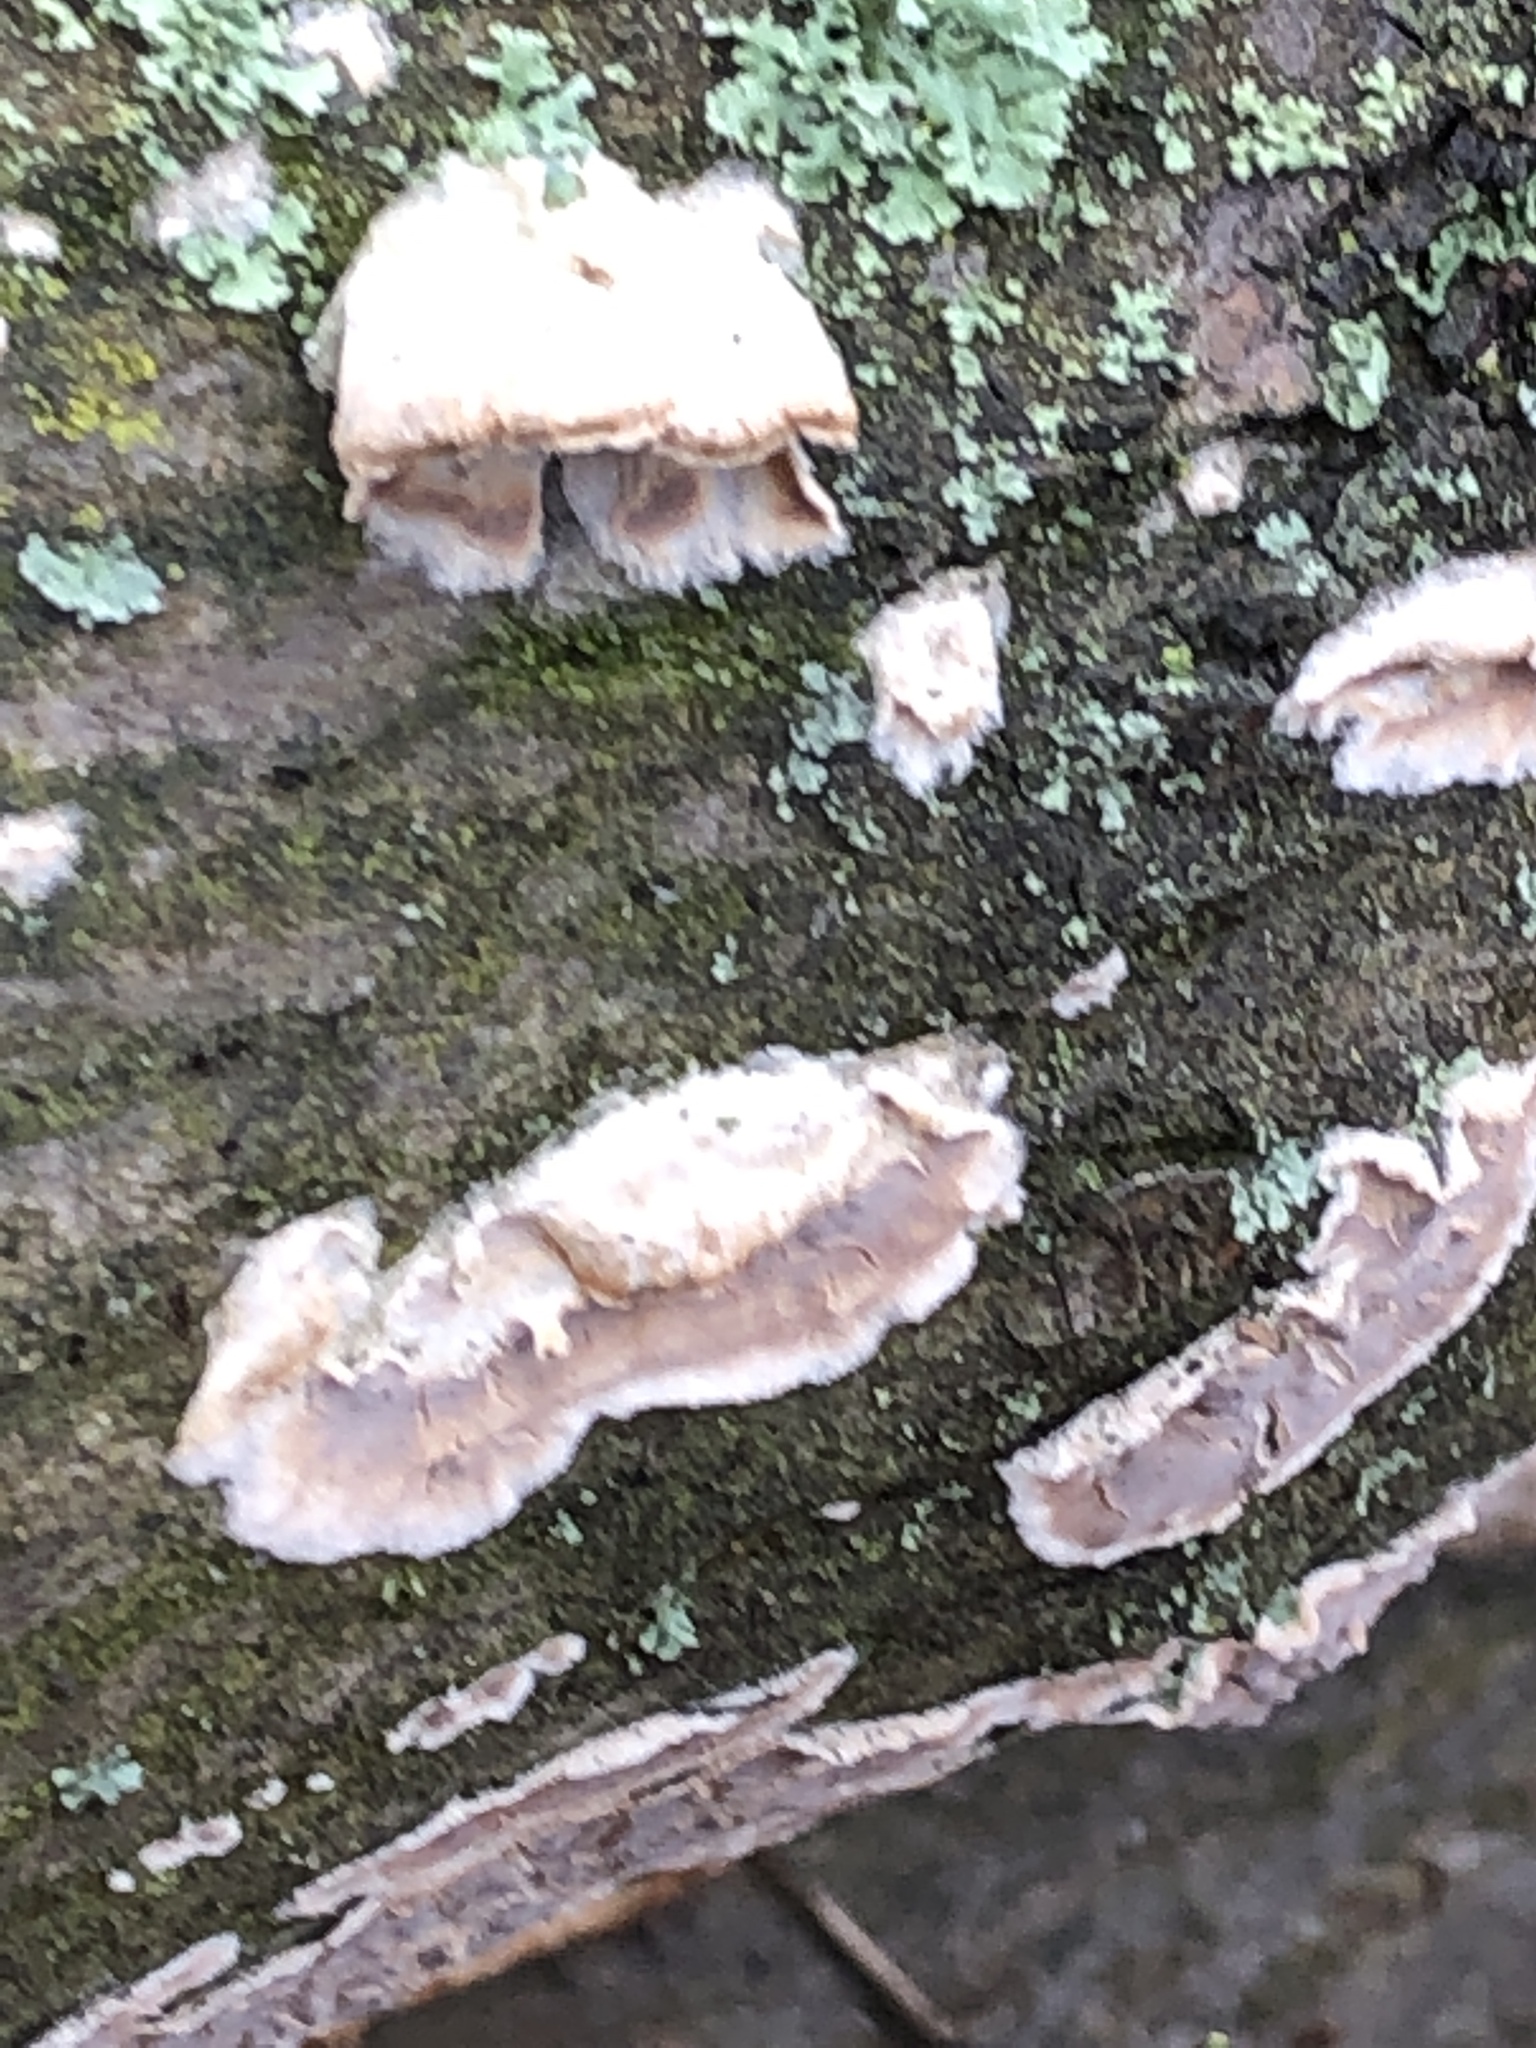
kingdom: Fungi
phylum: Basidiomycota
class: Agaricomycetes
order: Agaricales
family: Cyphellaceae
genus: Chondrostereum
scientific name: Chondrostereum purpureum
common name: Silver leaf disease
